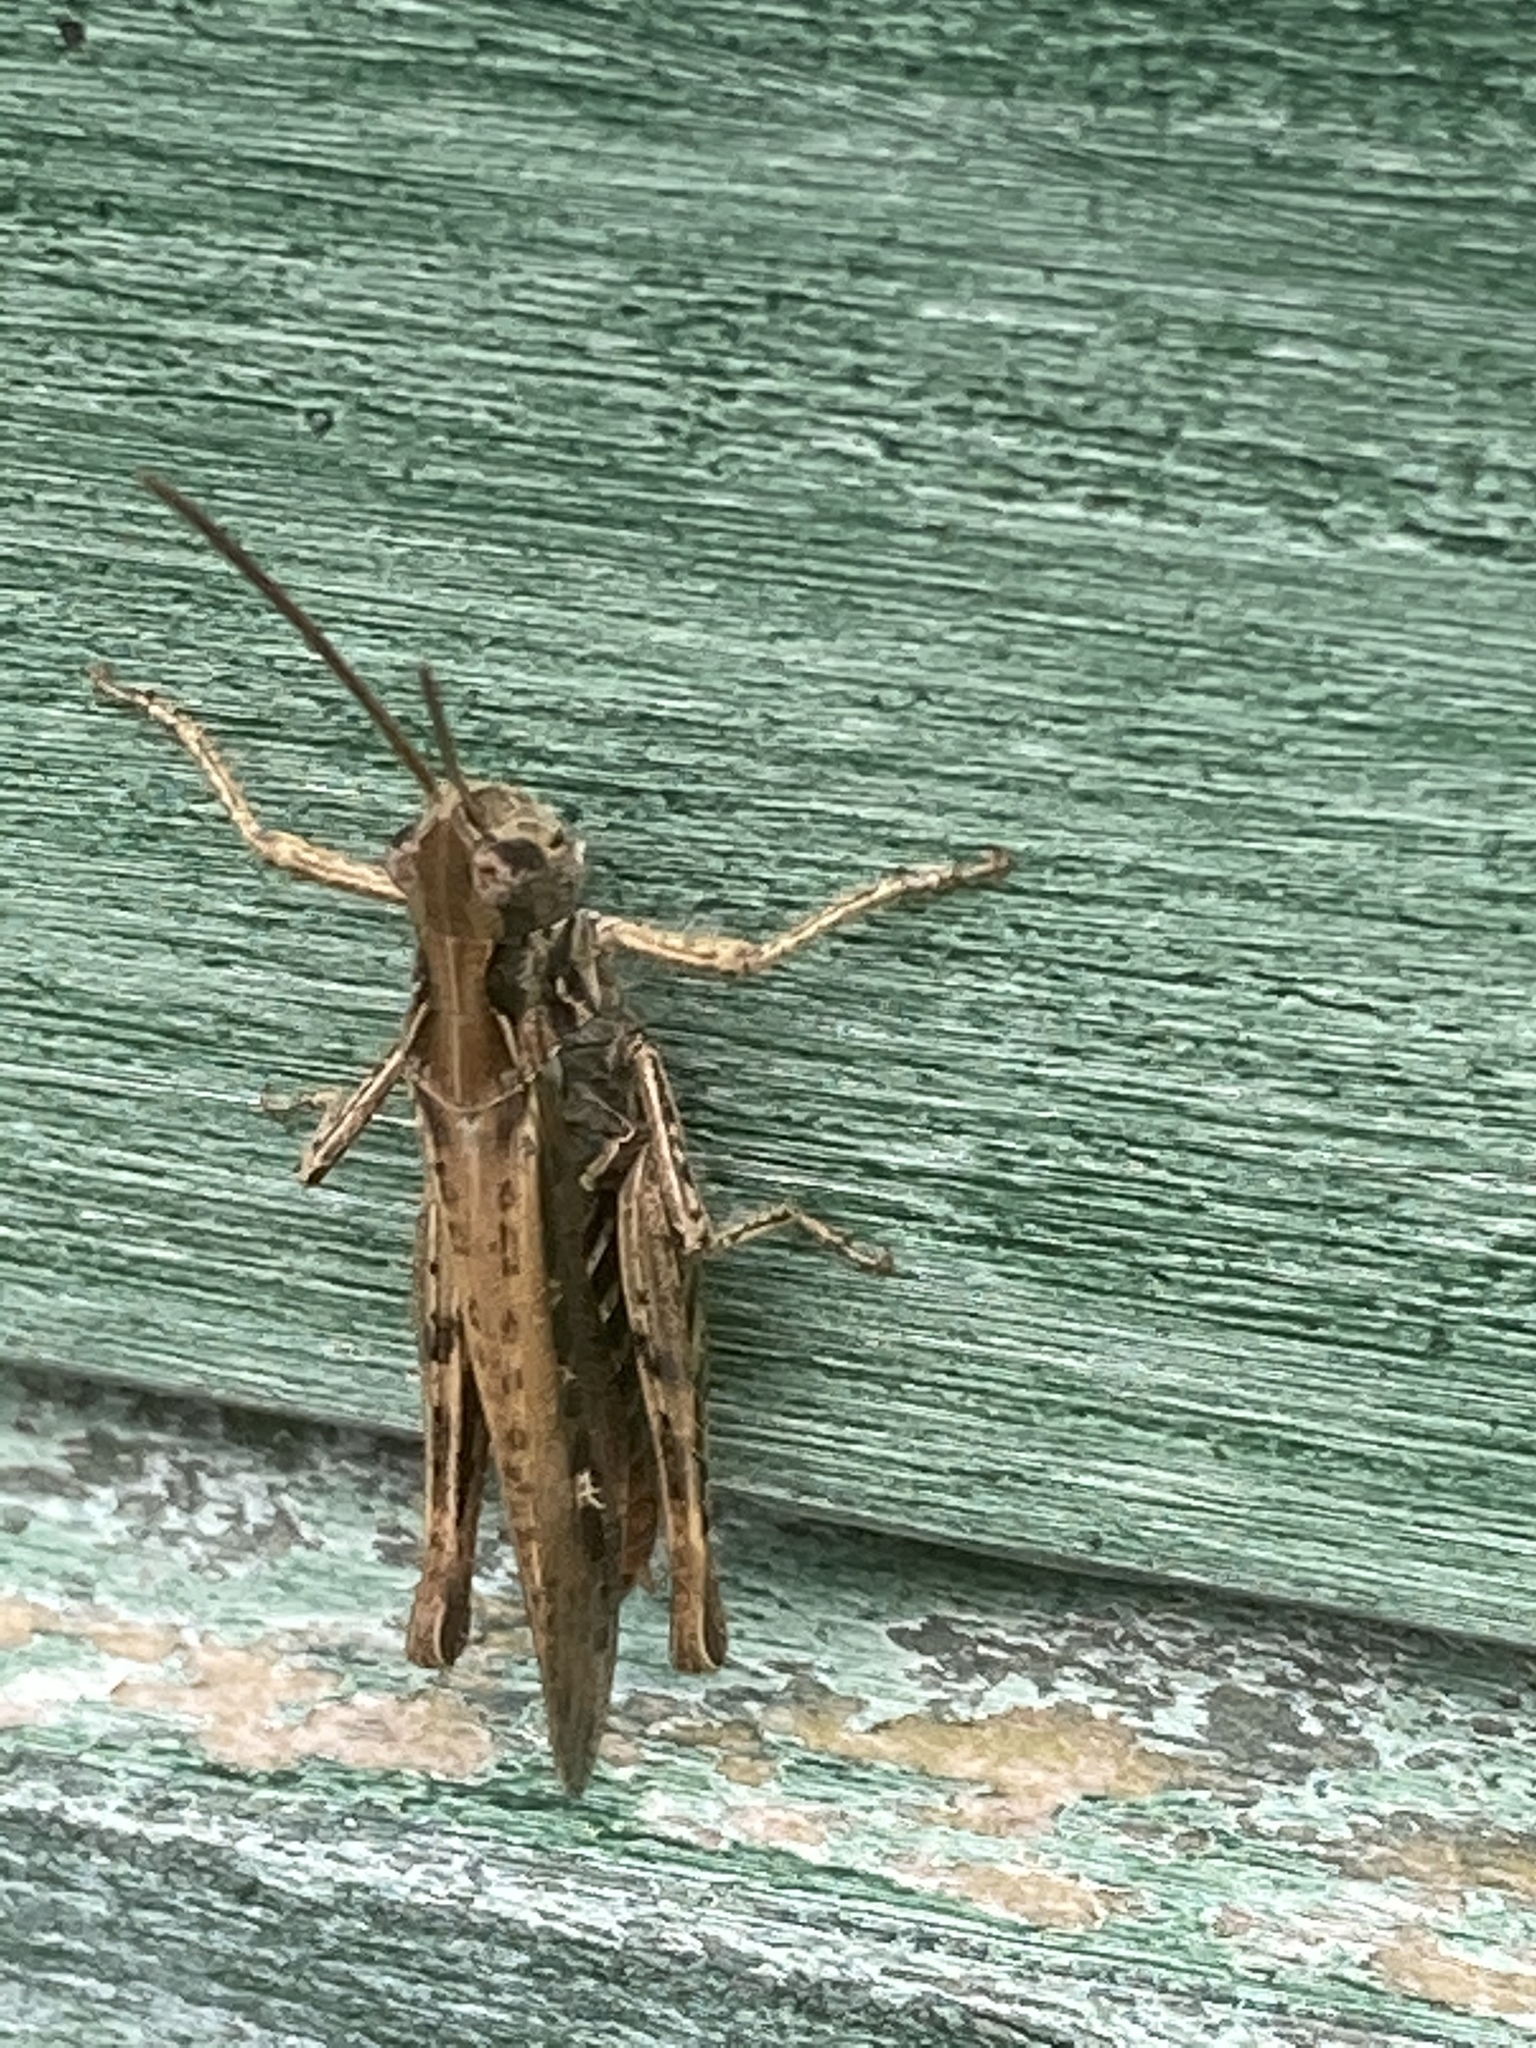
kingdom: Animalia
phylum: Arthropoda
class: Insecta
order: Orthoptera
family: Acrididae
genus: Chorthippus
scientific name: Chorthippus brunneus
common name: Field grasshopper
